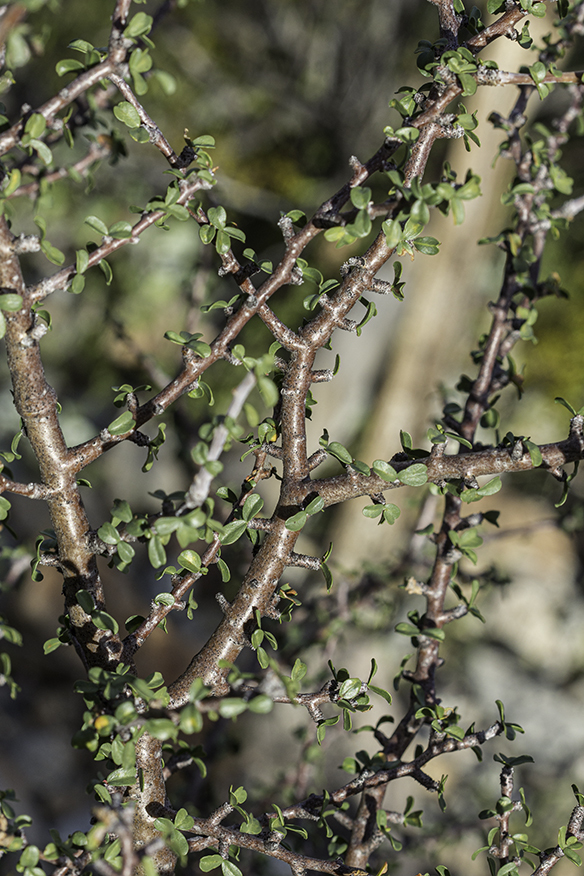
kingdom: Plantae
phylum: Tracheophyta
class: Magnoliopsida
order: Malpighiales
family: Euphorbiaceae
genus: Jatropha
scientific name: Jatropha cuneata
